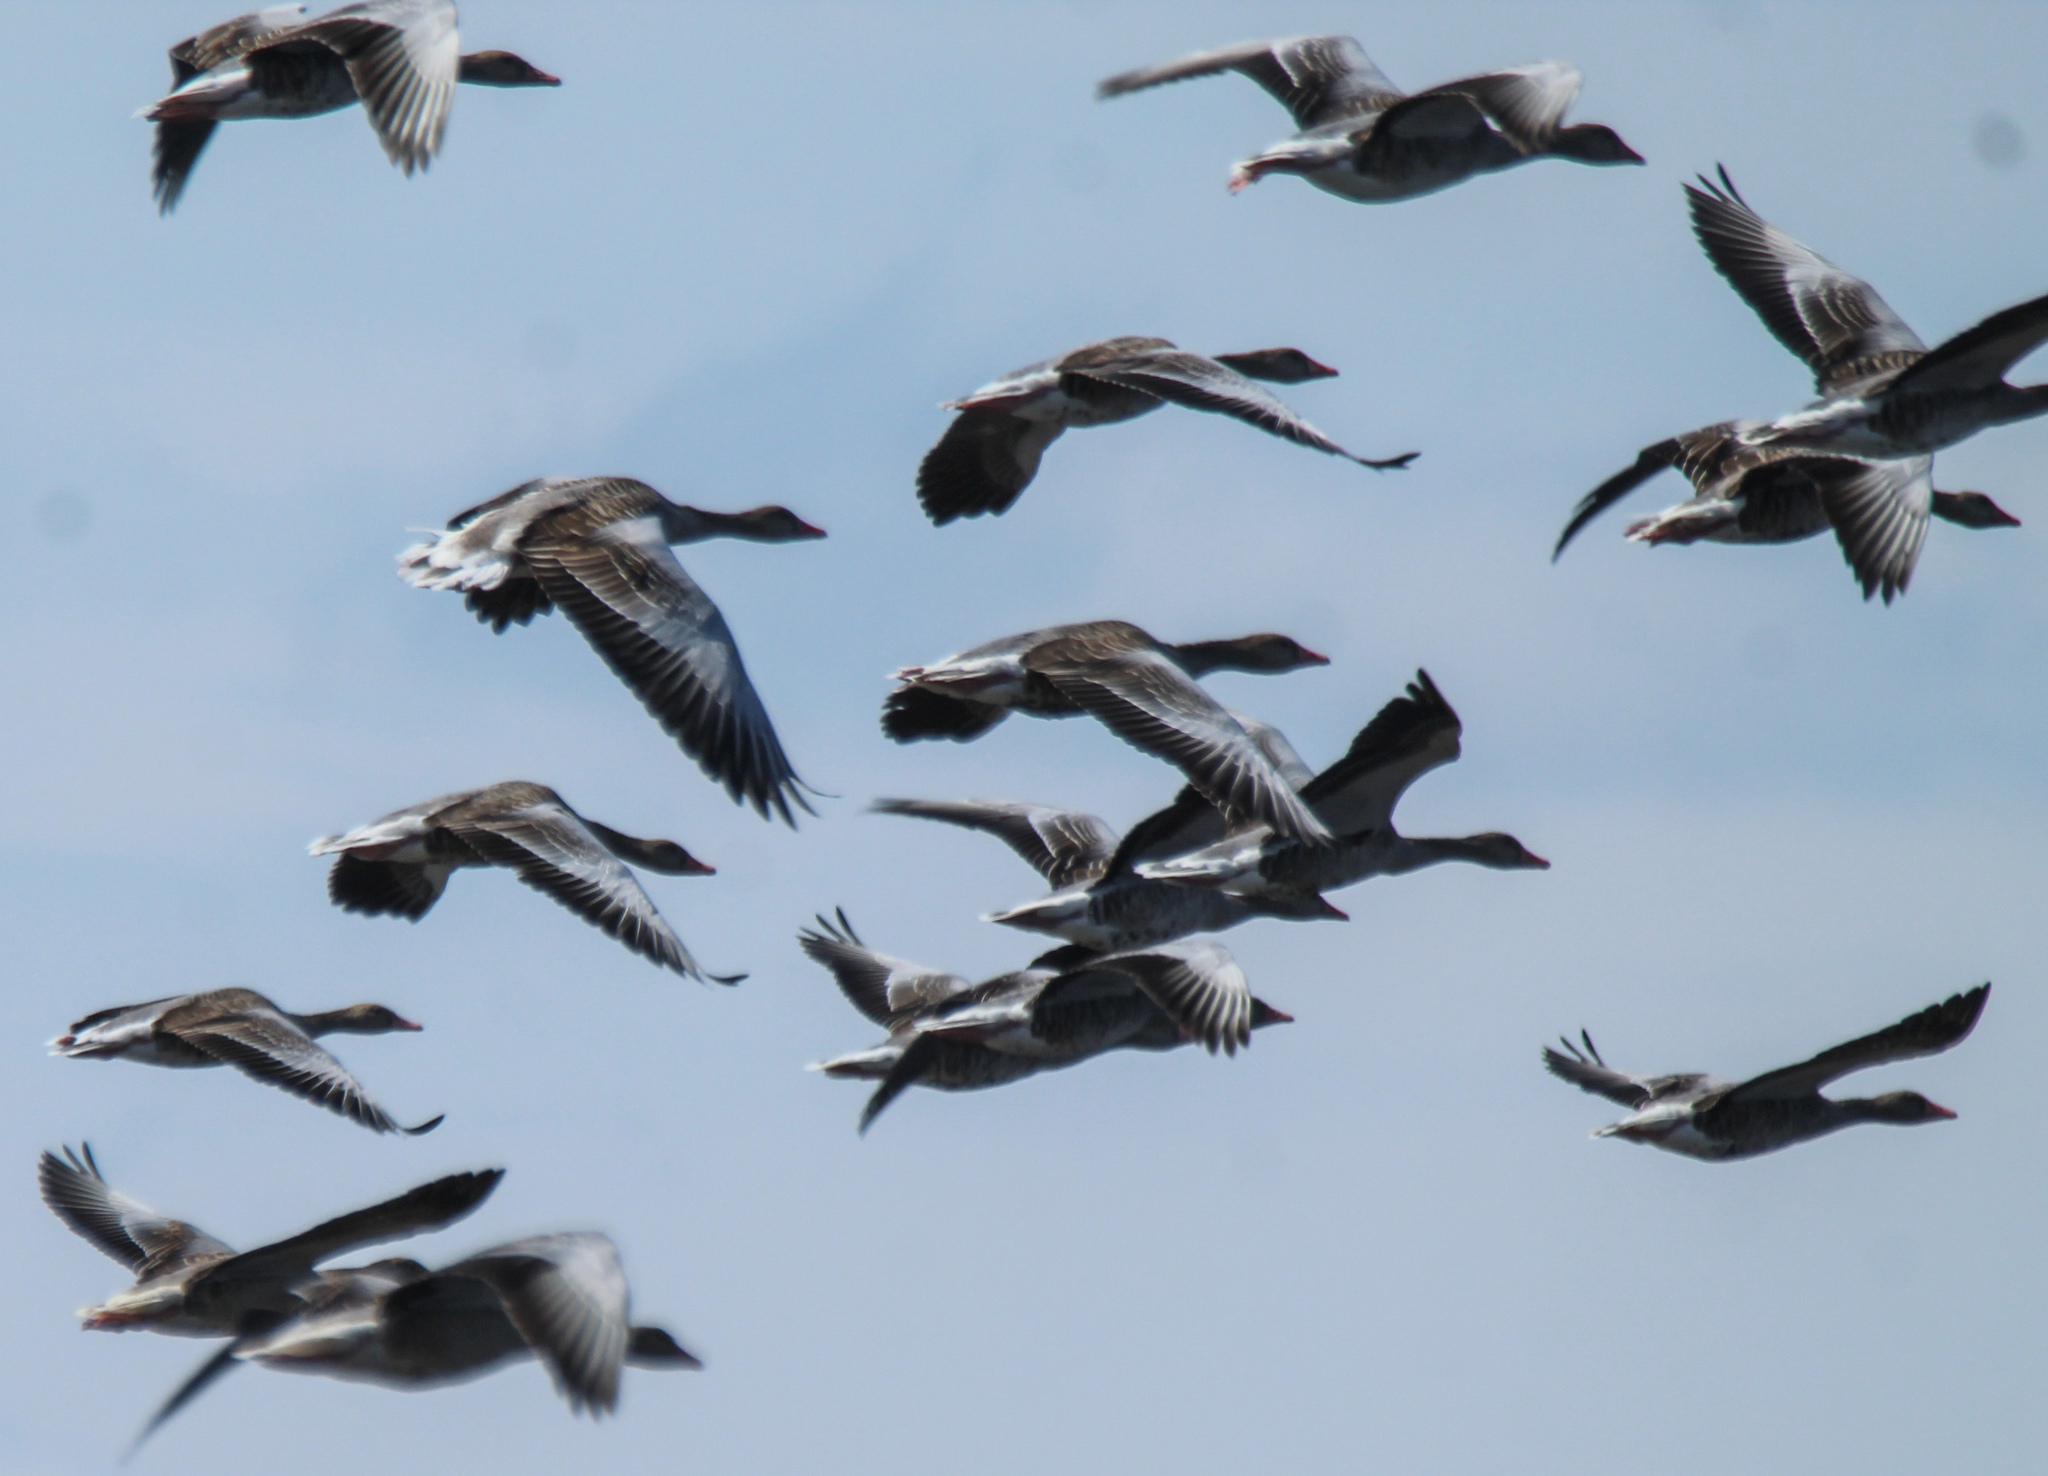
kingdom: Animalia
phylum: Chordata
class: Aves
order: Anseriformes
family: Anatidae
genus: Anser
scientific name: Anser anser
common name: Greylag goose
